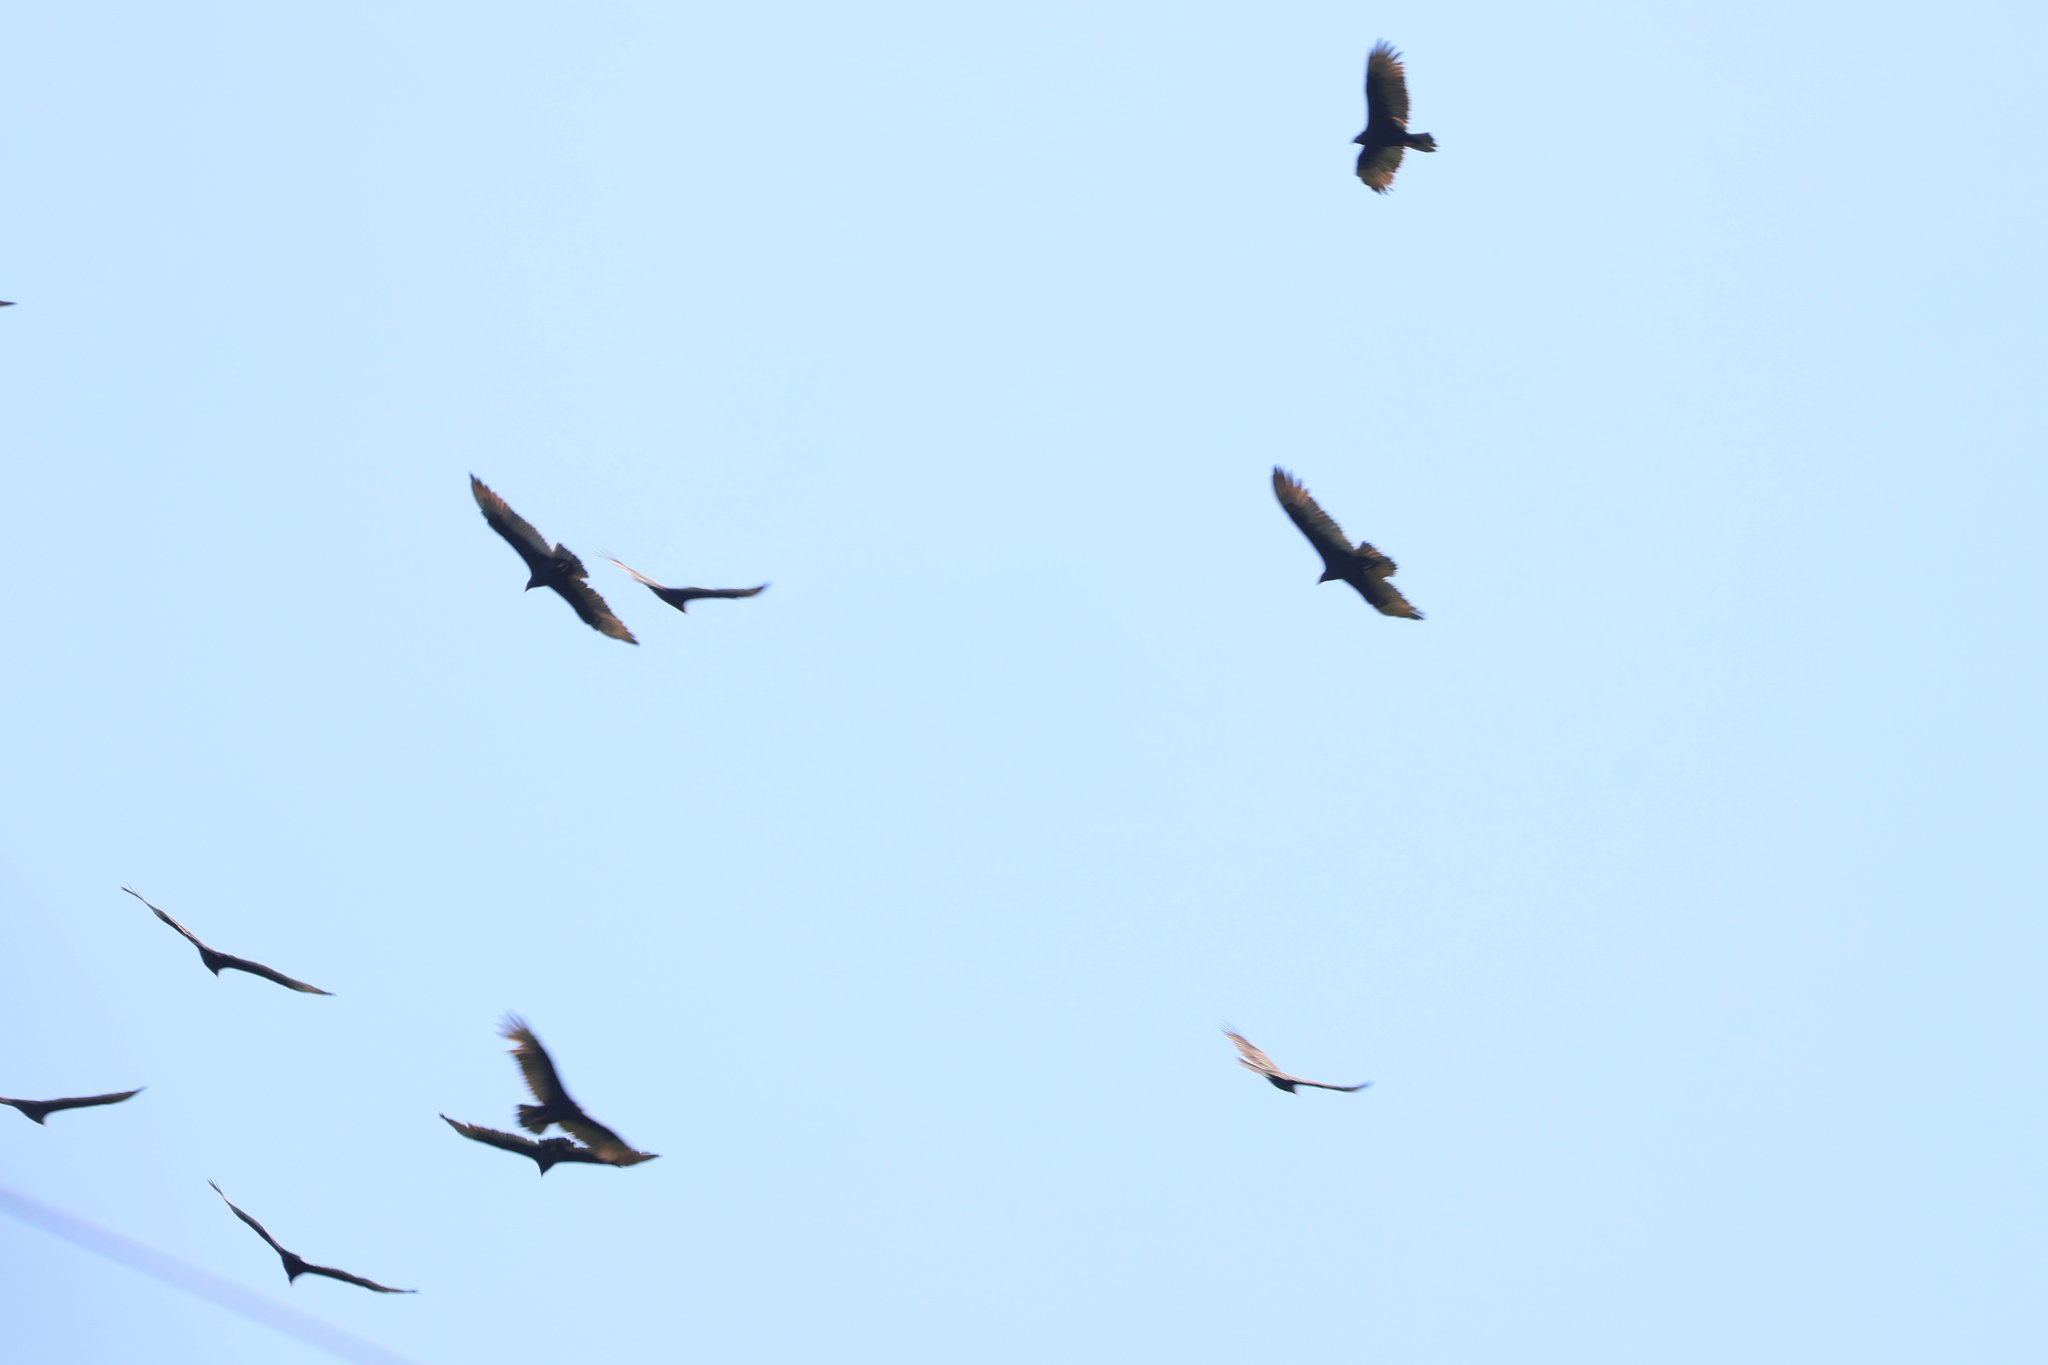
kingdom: Animalia
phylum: Chordata
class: Aves
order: Accipitriformes
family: Cathartidae
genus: Cathartes
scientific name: Cathartes aura
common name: Turkey vulture
